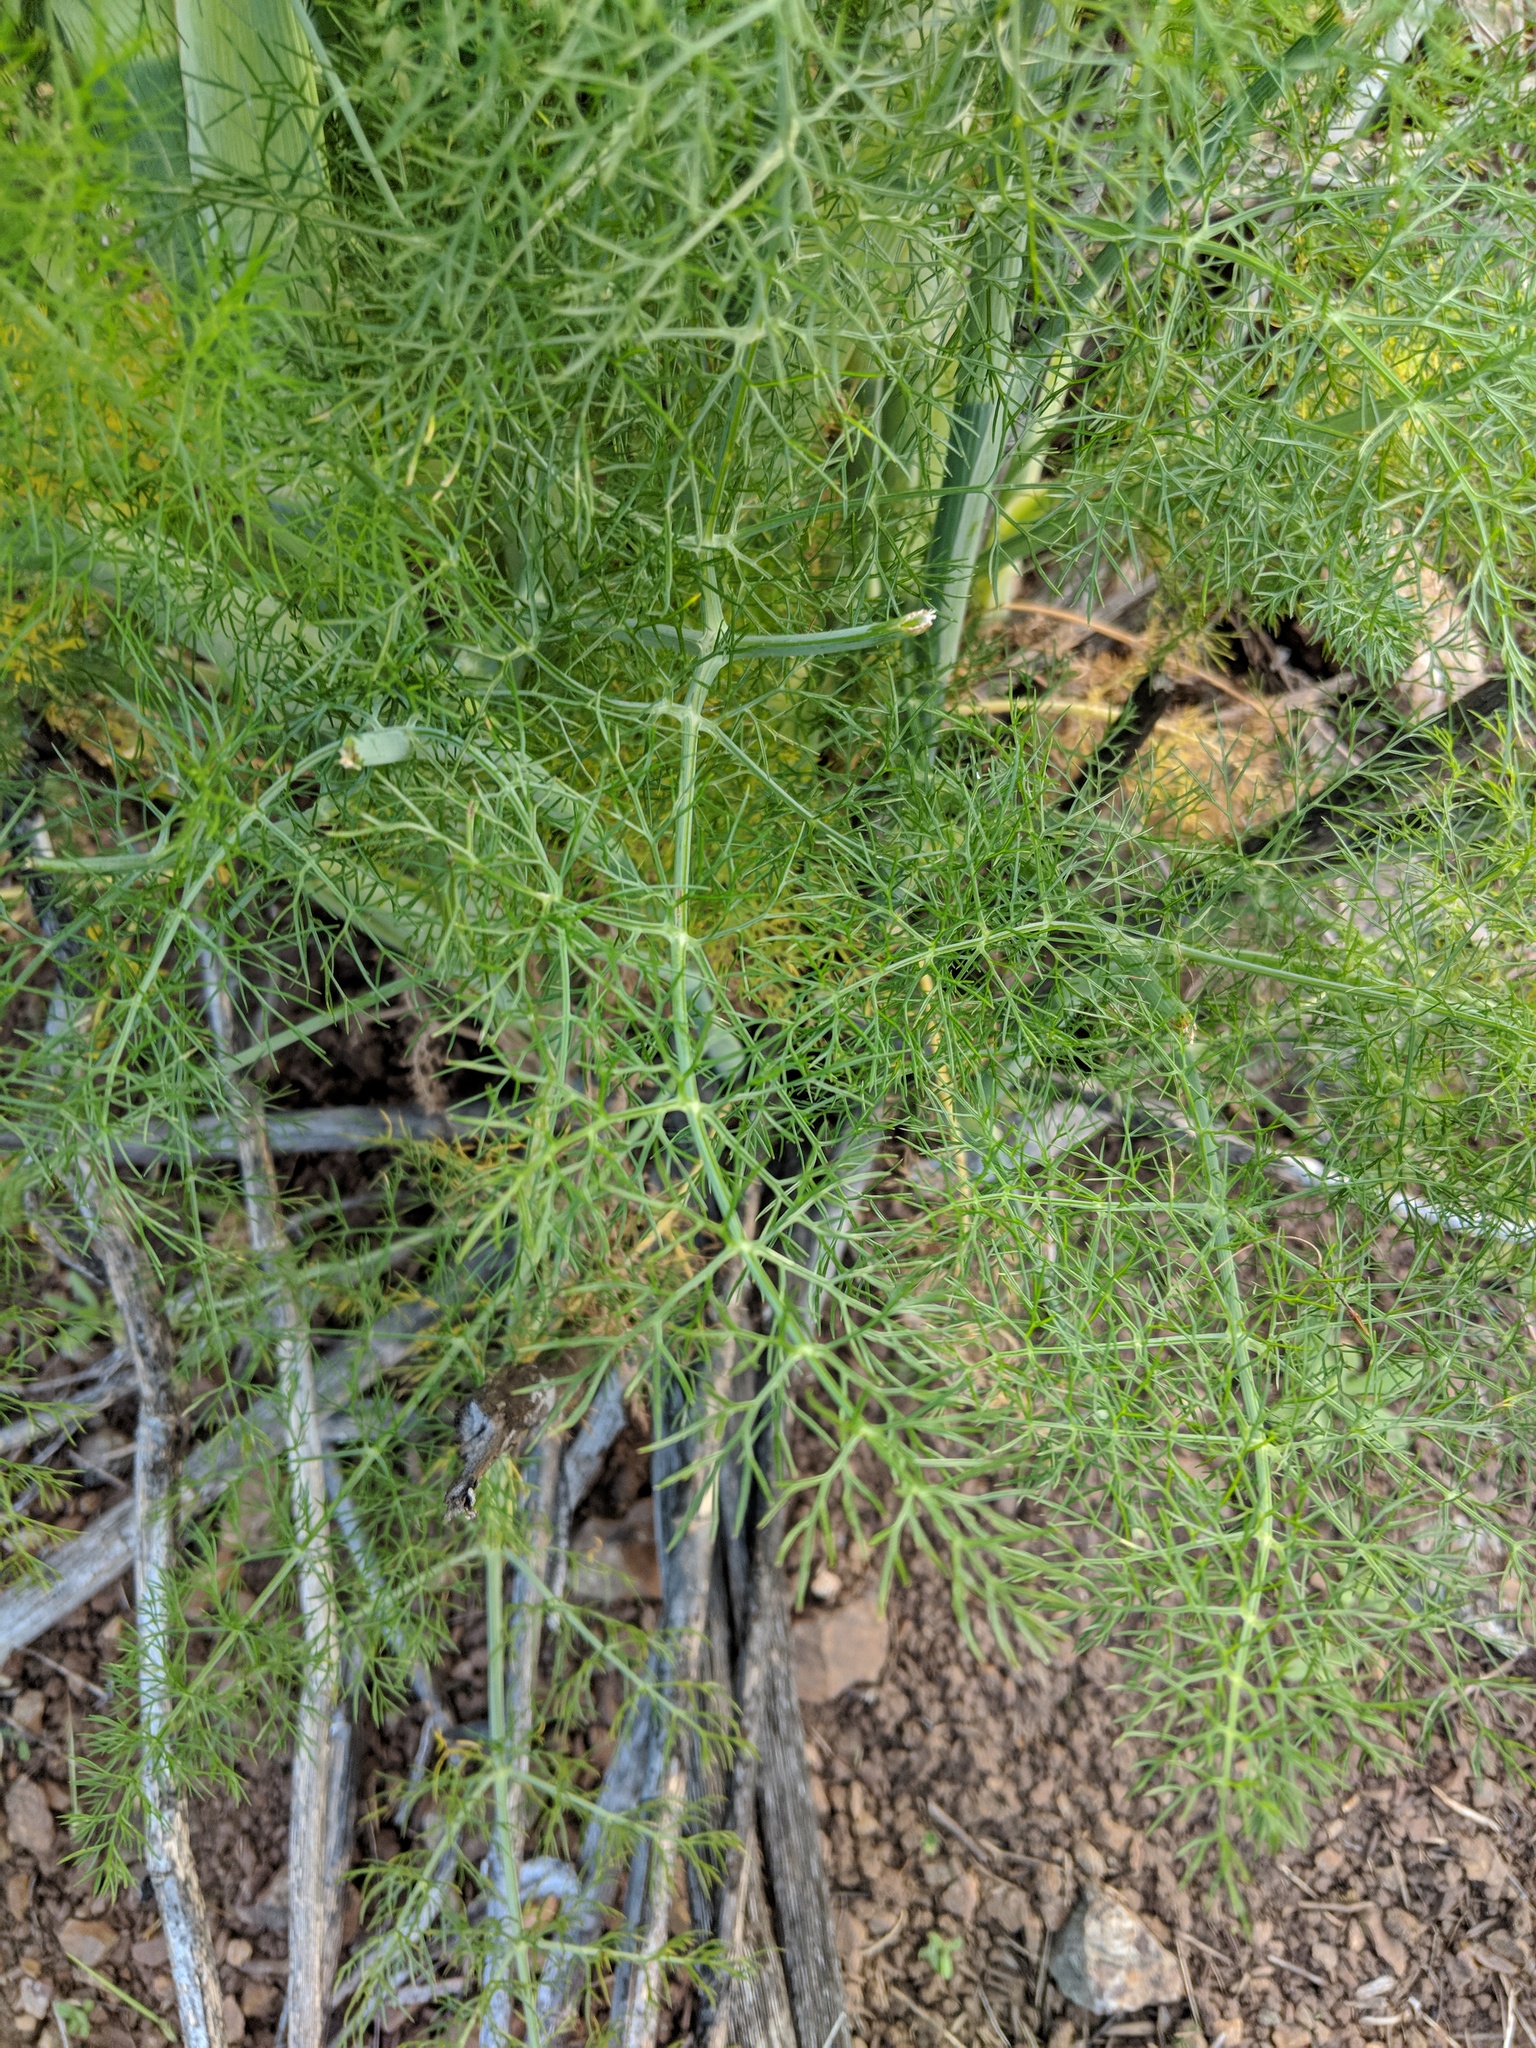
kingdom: Plantae
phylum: Tracheophyta
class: Magnoliopsida
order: Apiales
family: Apiaceae
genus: Foeniculum
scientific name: Foeniculum vulgare
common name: Fennel
